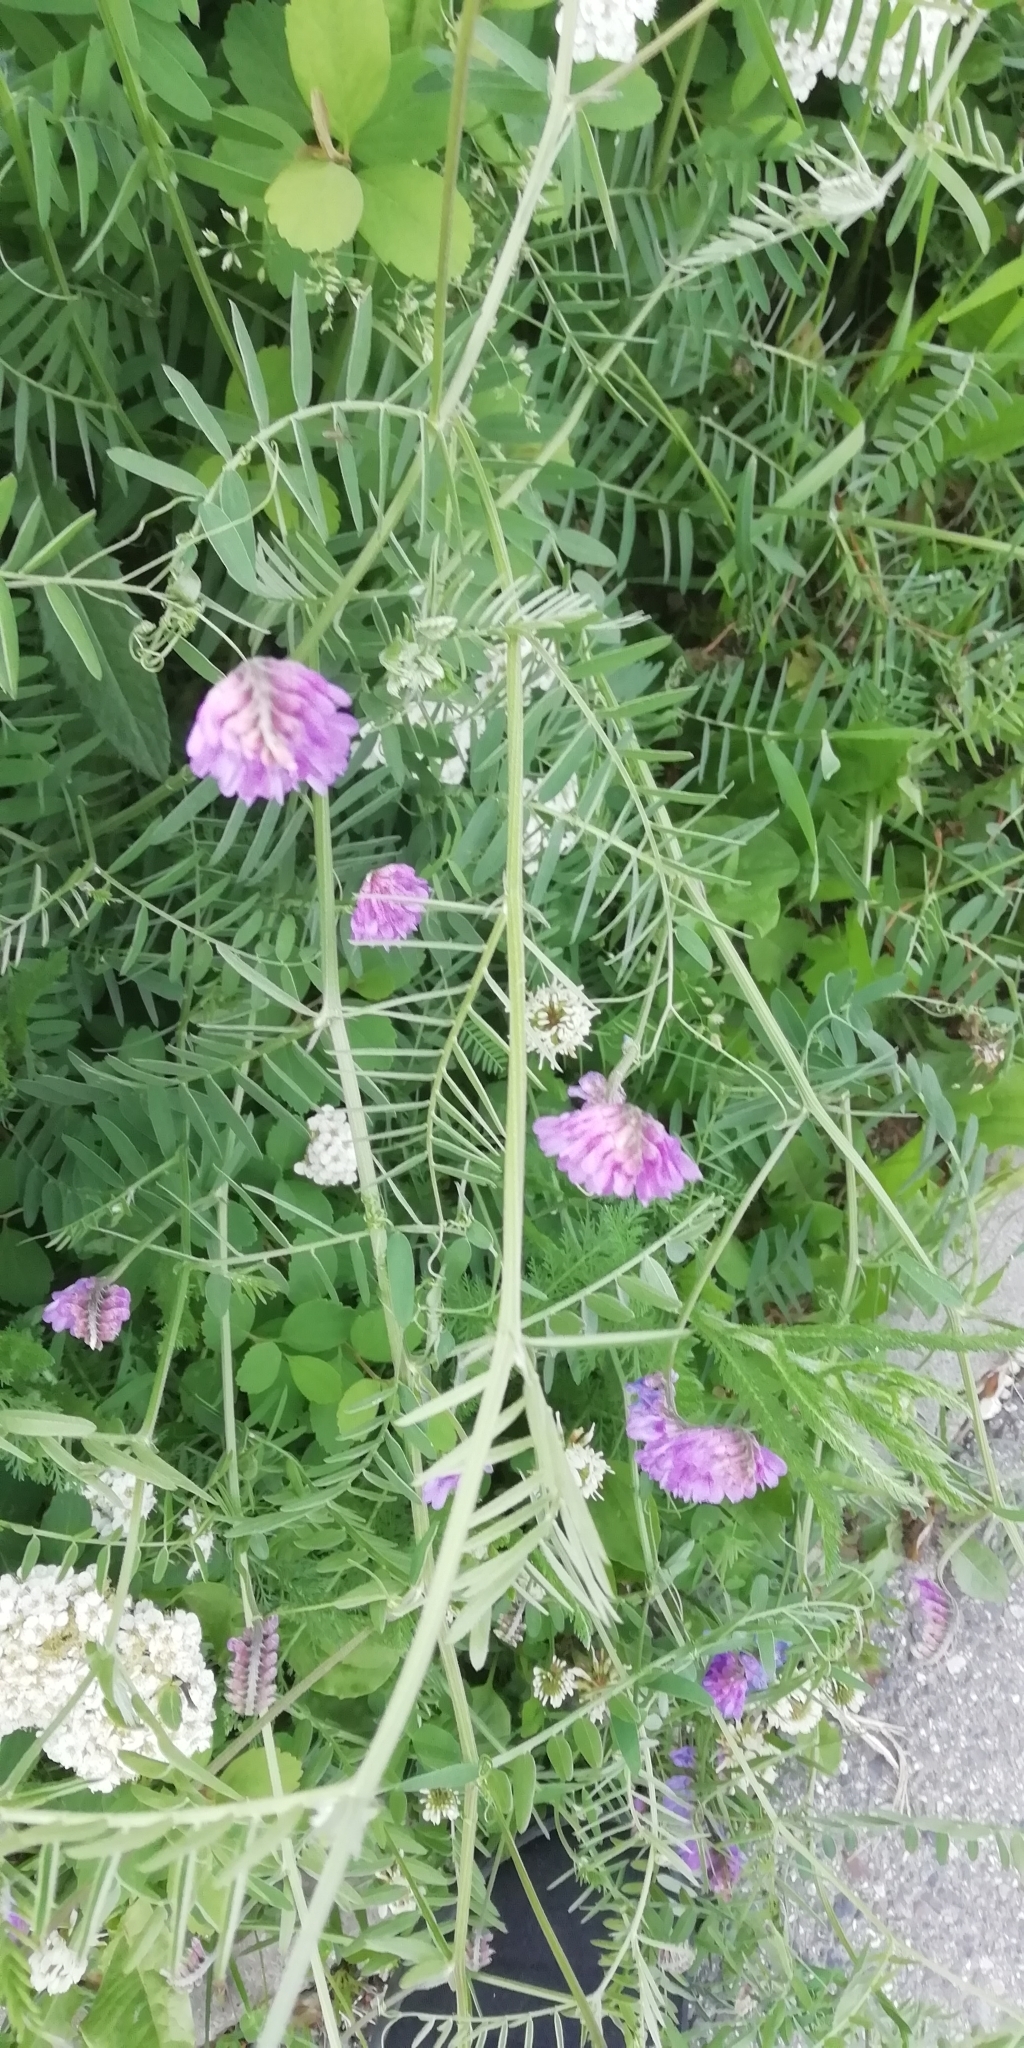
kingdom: Plantae
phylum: Tracheophyta
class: Magnoliopsida
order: Fabales
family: Fabaceae
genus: Vicia
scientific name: Vicia cracca
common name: Bird vetch
